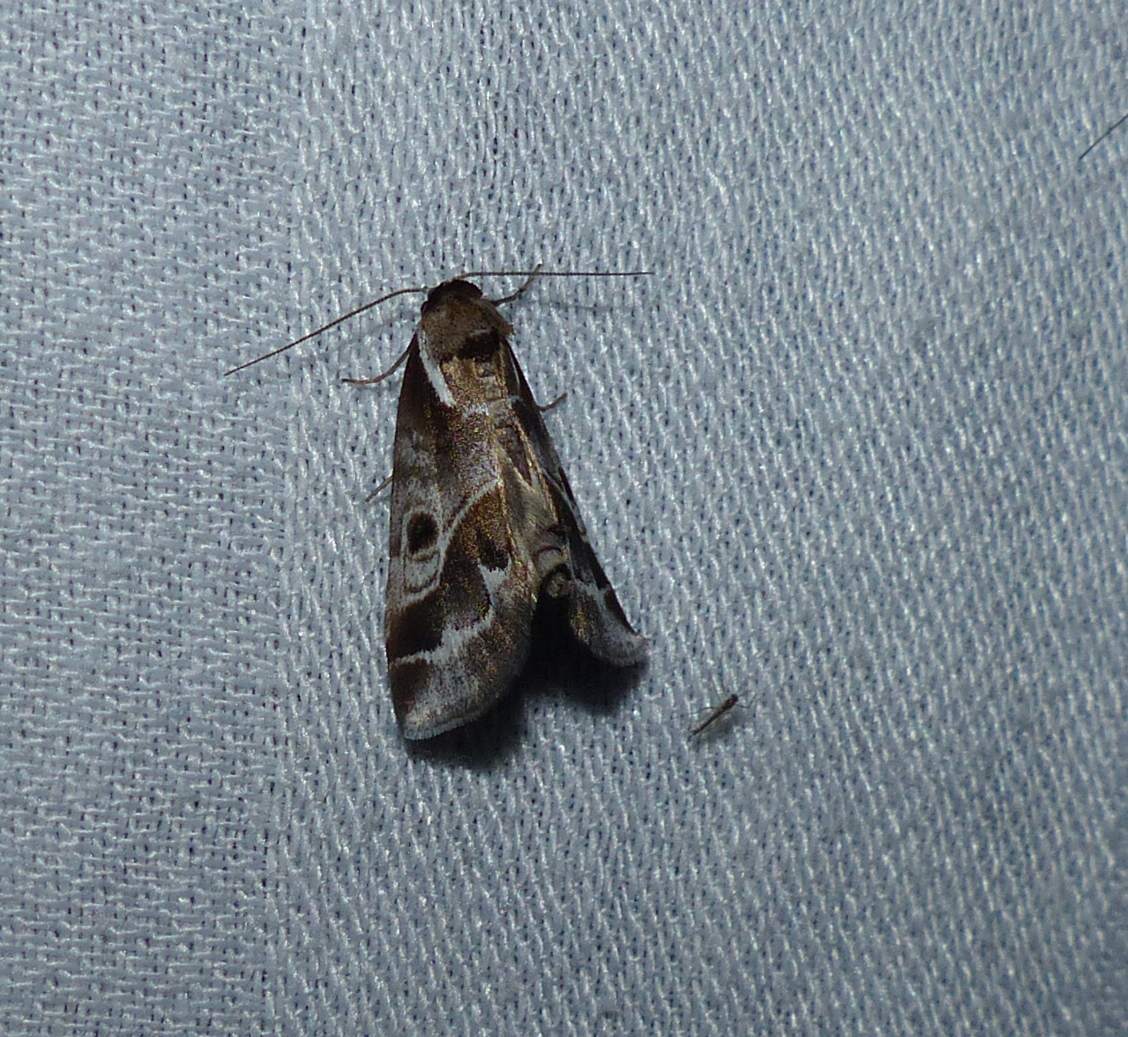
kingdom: Animalia
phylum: Arthropoda
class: Insecta
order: Lepidoptera
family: Nolidae
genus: Baileya
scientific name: Baileya doubledayi
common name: Doubleday's baileya moth
